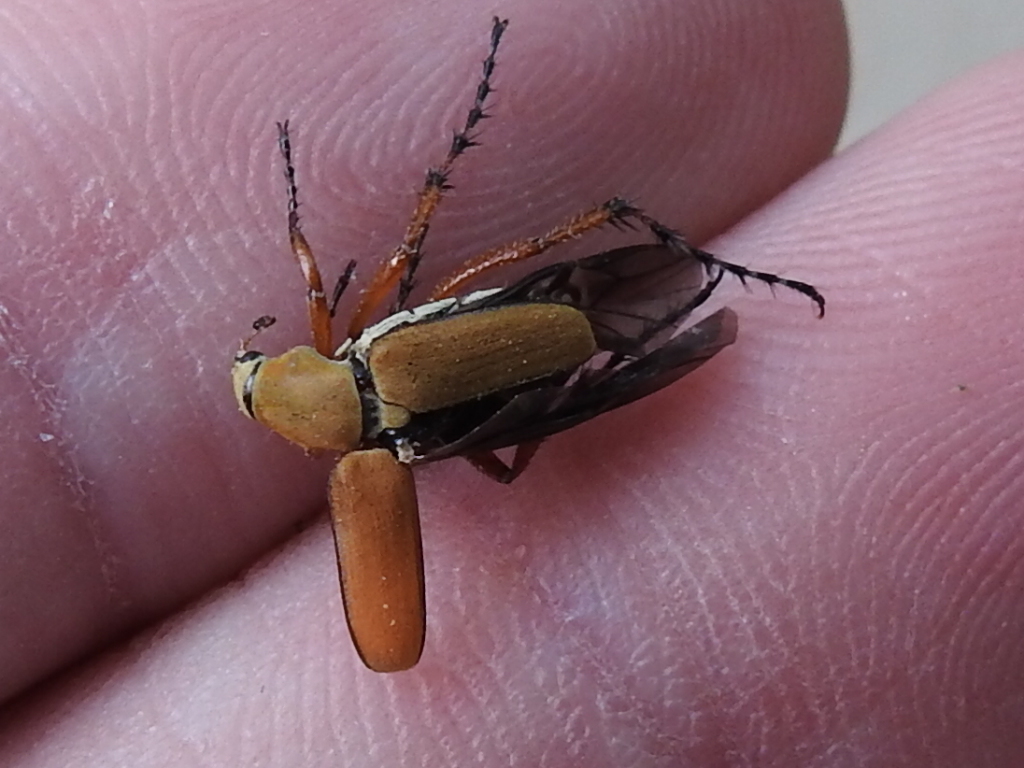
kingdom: Animalia
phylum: Arthropoda
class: Insecta
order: Coleoptera
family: Scarabaeidae
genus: Macrodactylus
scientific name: Macrodactylus subspinosus
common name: American rose chafer
